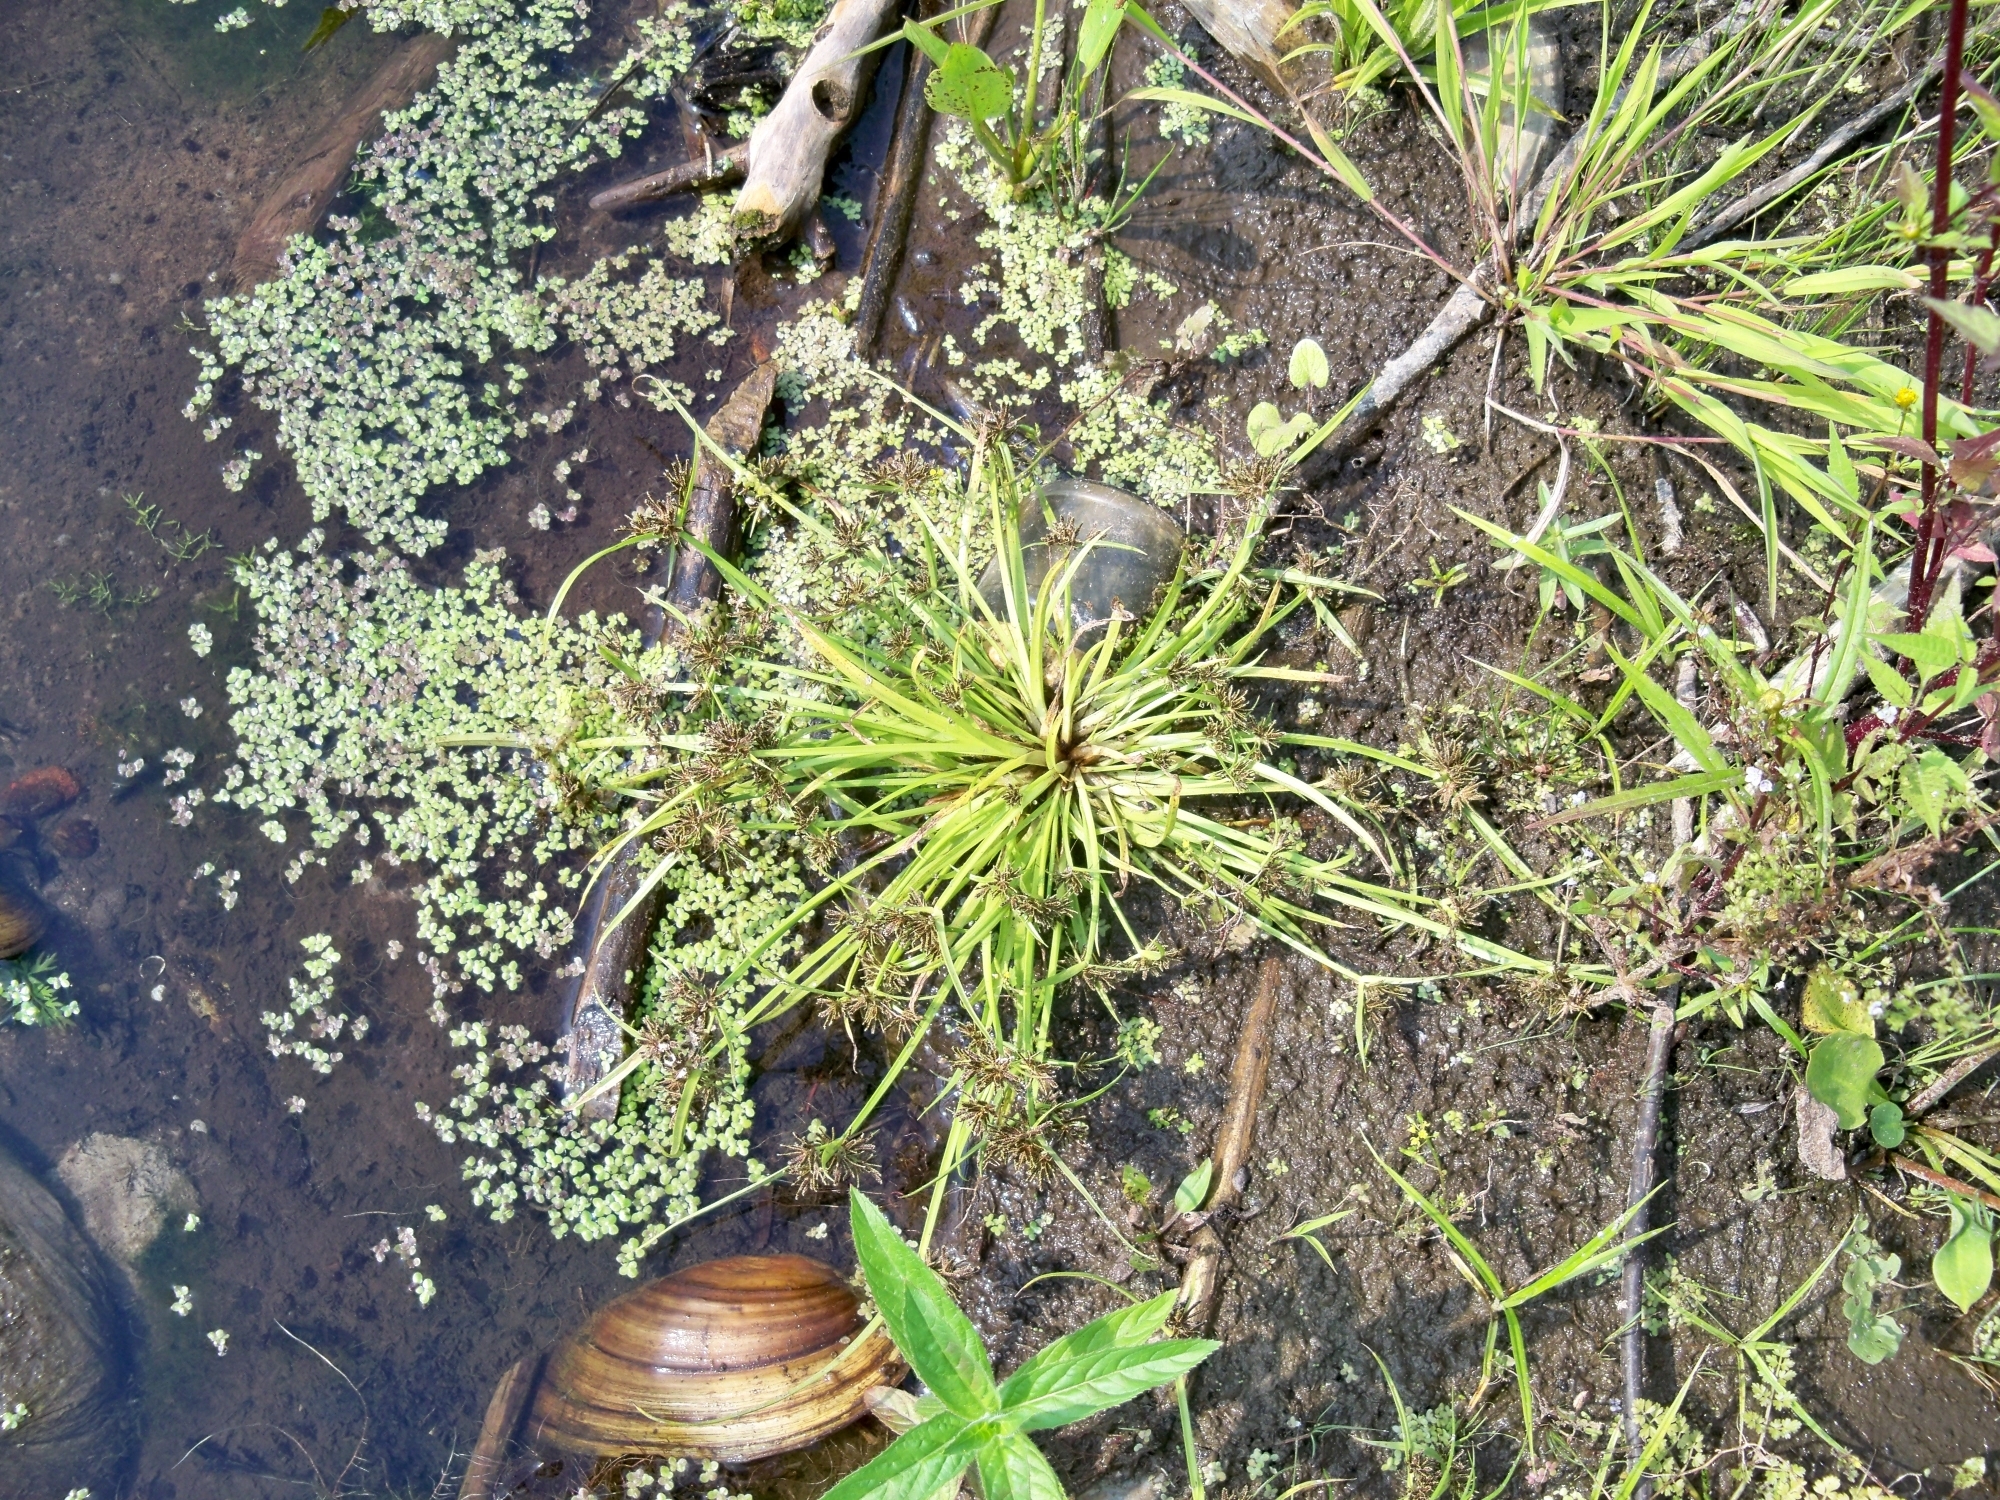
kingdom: Plantae
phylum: Tracheophyta
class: Liliopsida
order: Poales
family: Cyperaceae
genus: Cyperus
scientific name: Cyperus fuscus
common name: Brown galingale
